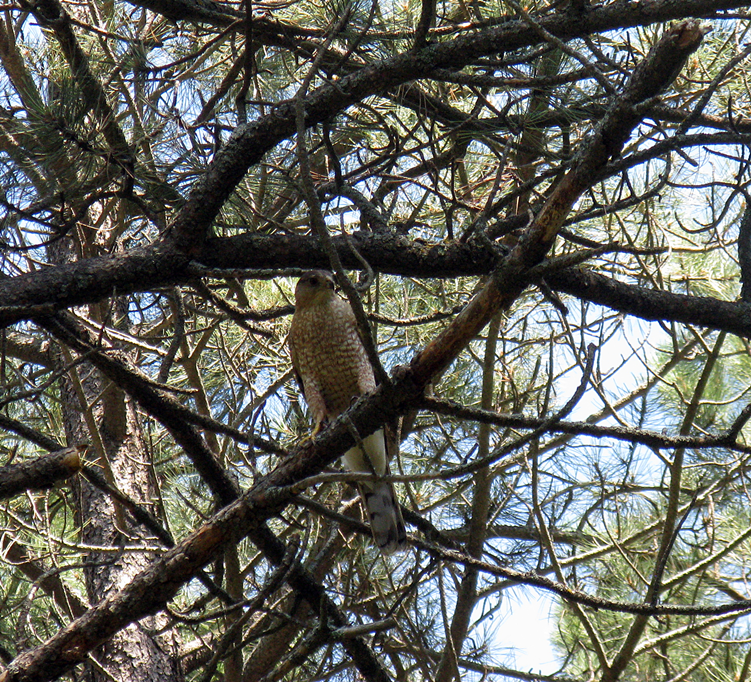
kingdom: Animalia
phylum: Chordata
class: Aves
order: Accipitriformes
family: Accipitridae
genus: Accipiter
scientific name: Accipiter cooperii
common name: Cooper's hawk
